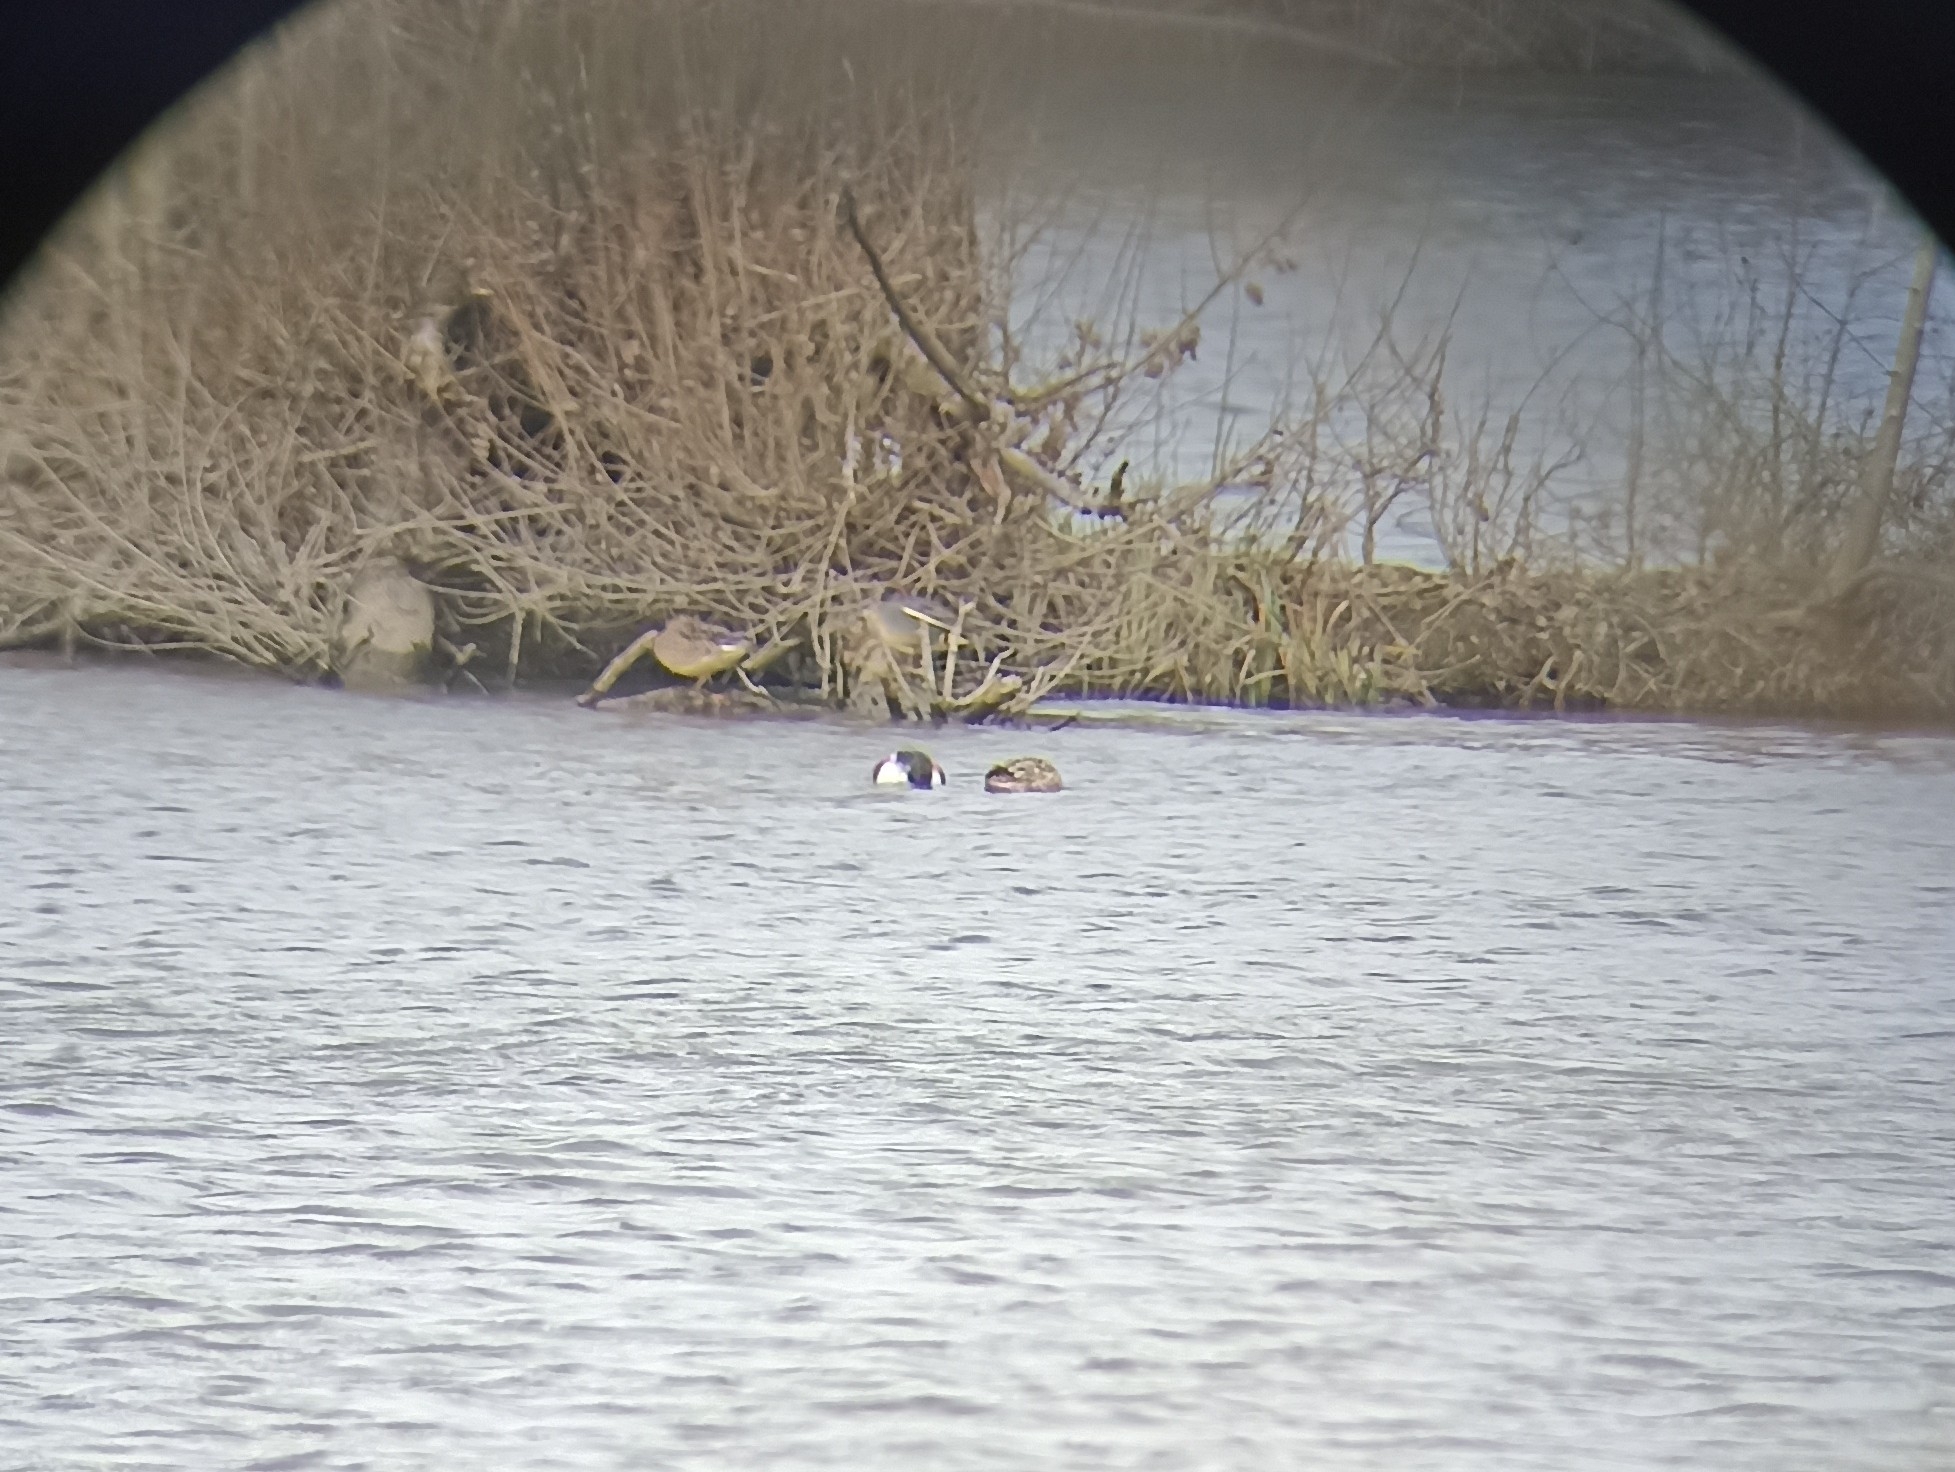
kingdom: Animalia
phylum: Chordata
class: Aves
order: Anseriformes
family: Anatidae
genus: Anas
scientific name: Anas crecca
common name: Eurasian teal
